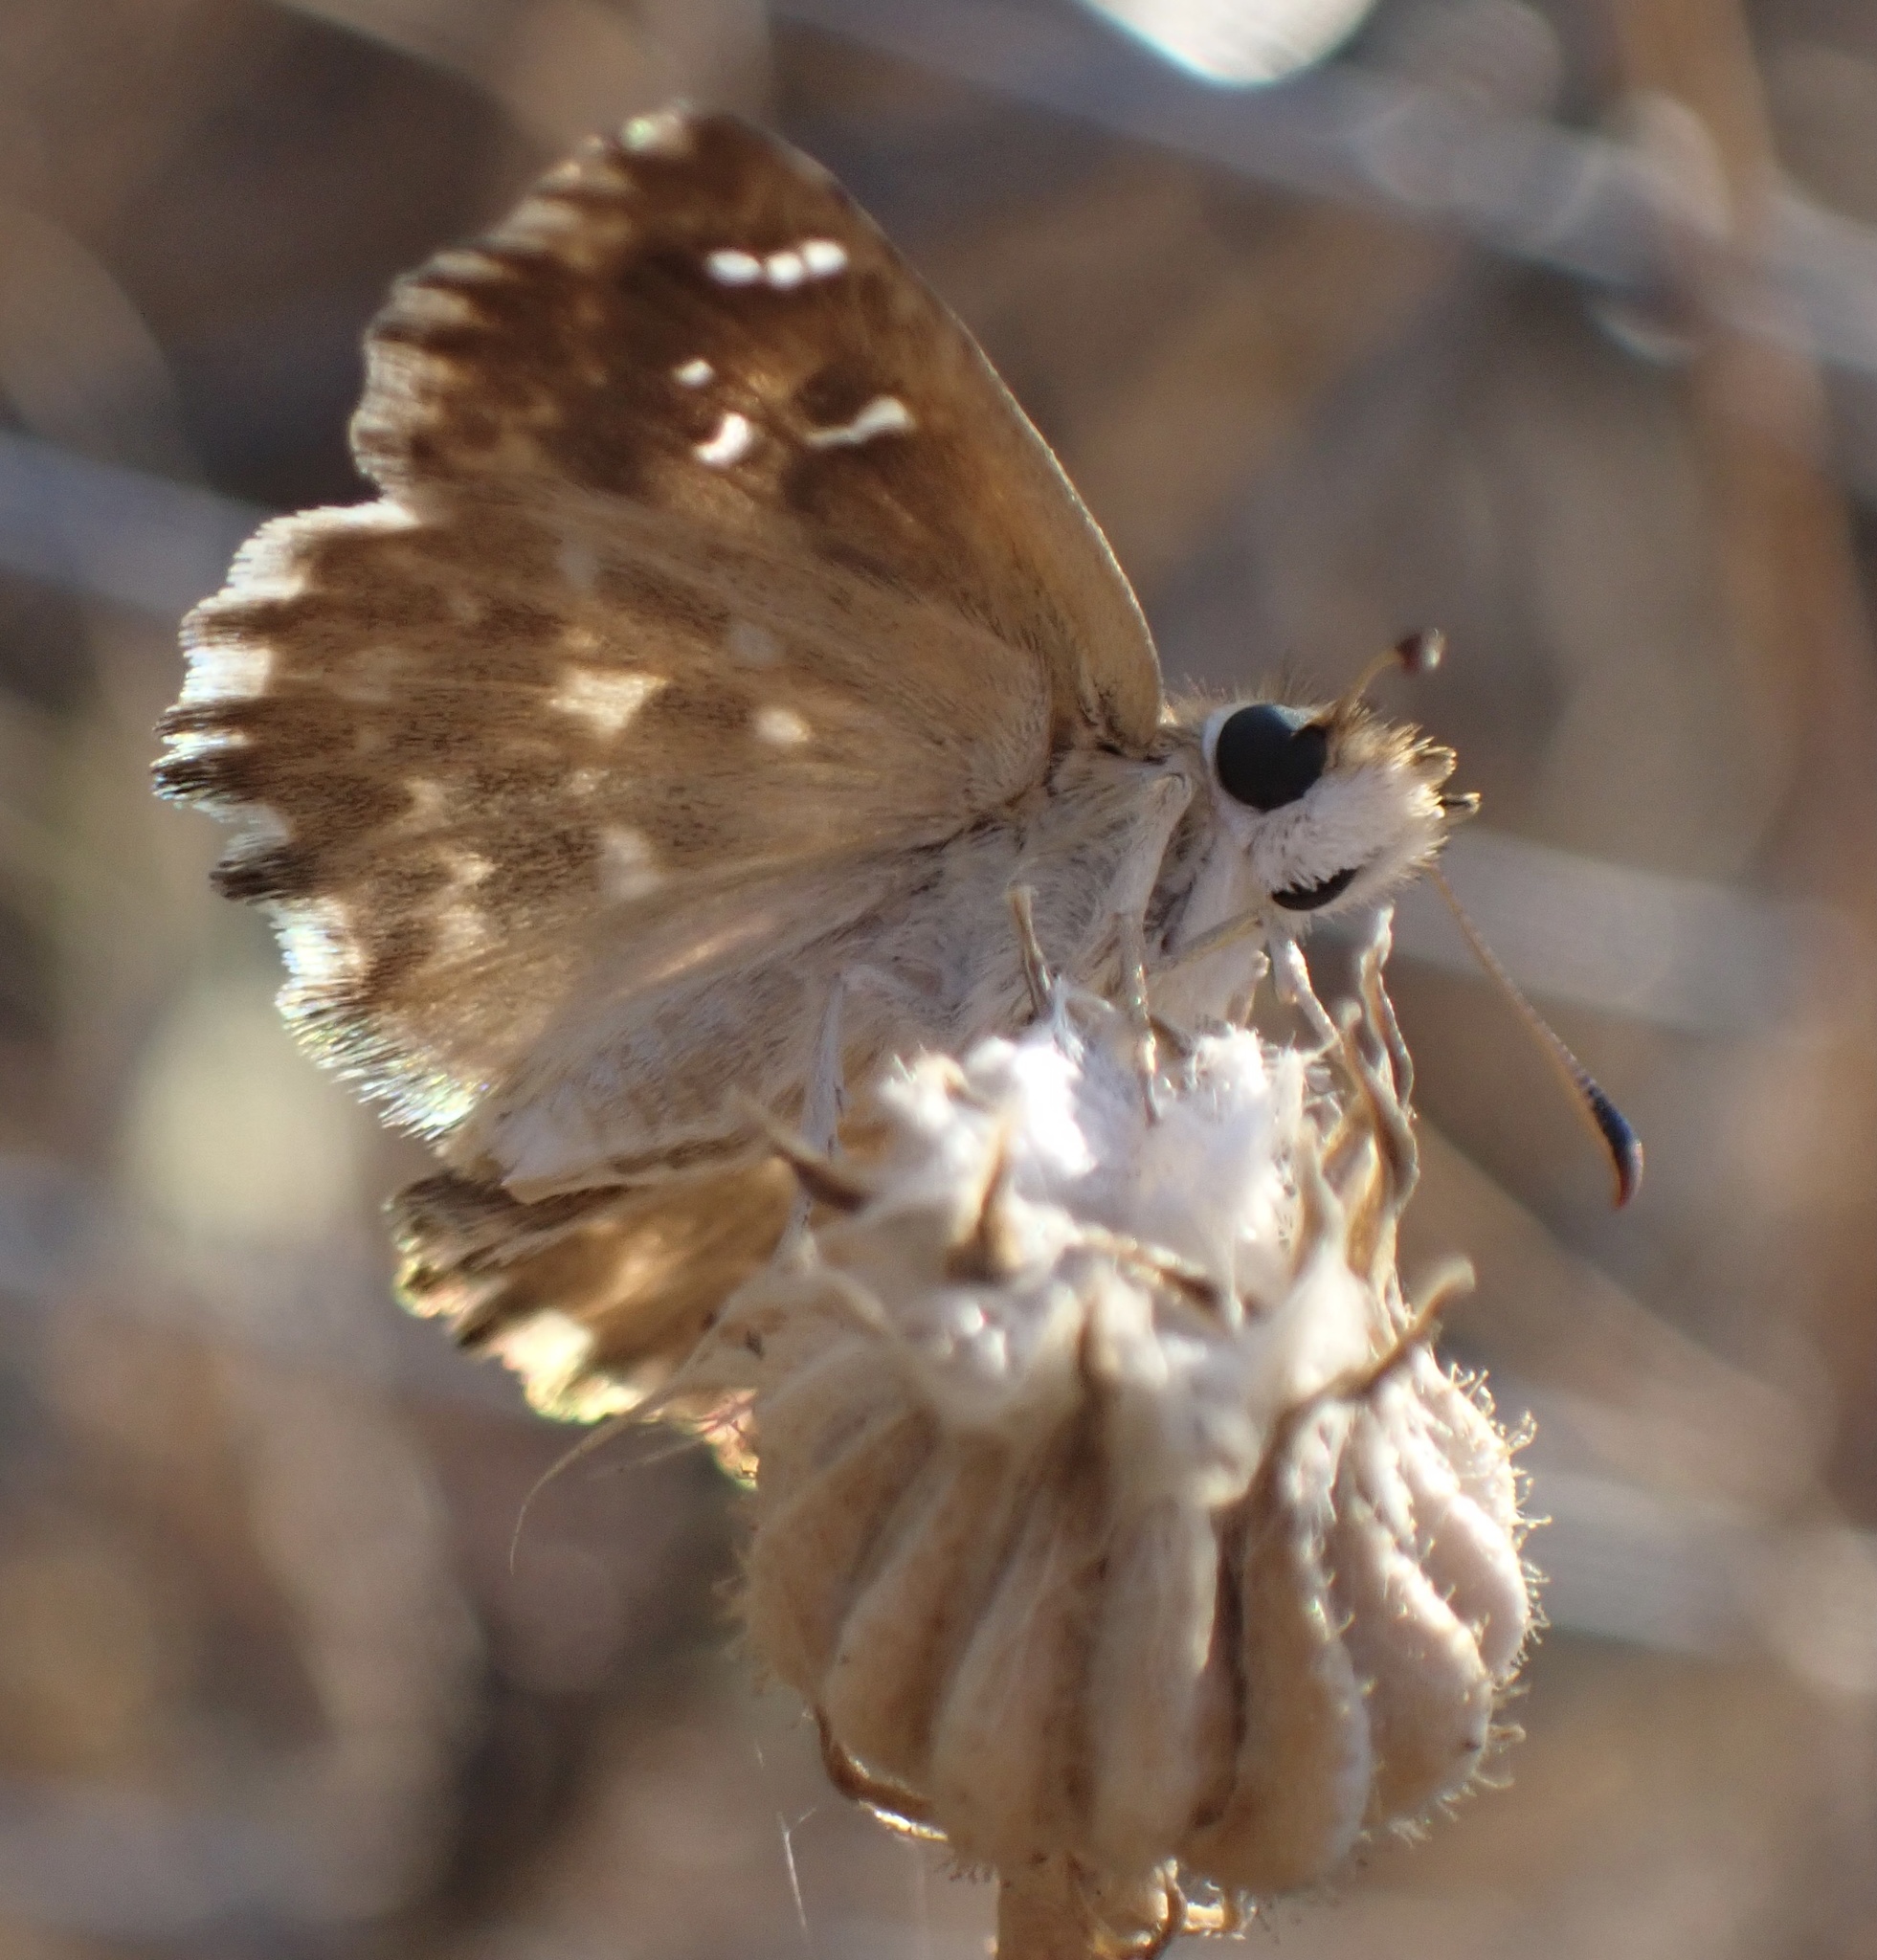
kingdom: Animalia
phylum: Arthropoda
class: Insecta
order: Lepidoptera
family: Hesperiidae
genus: Carcharodus
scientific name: Carcharodus alceae
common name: Mallow skipper
